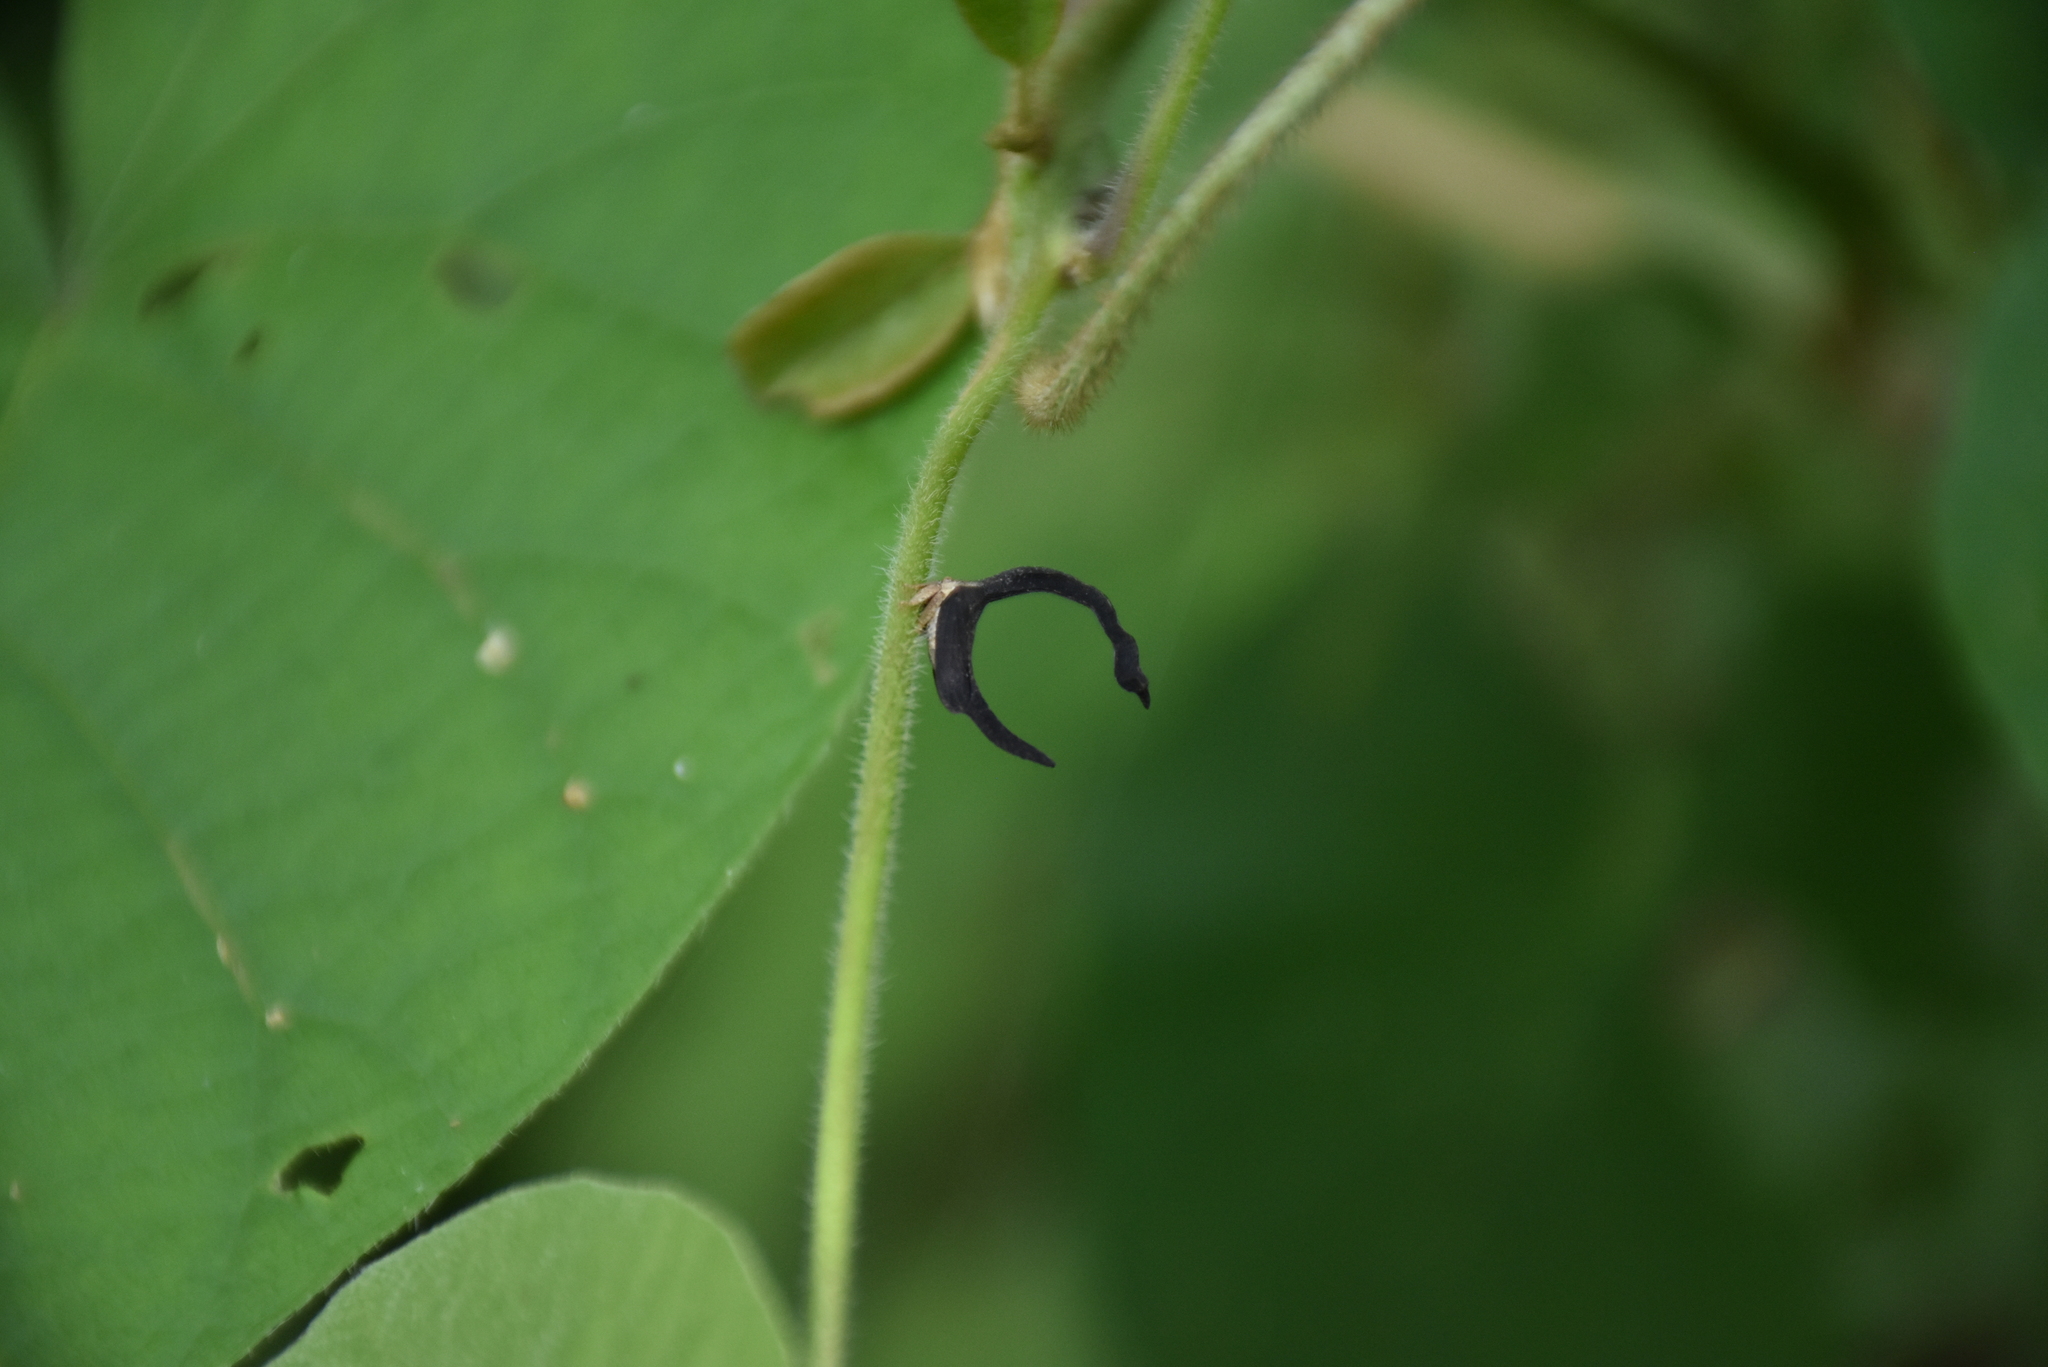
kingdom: Animalia
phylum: Arthropoda
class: Insecta
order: Hemiptera
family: Membracidae
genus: Cladonota
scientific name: Cladonota apicalis
